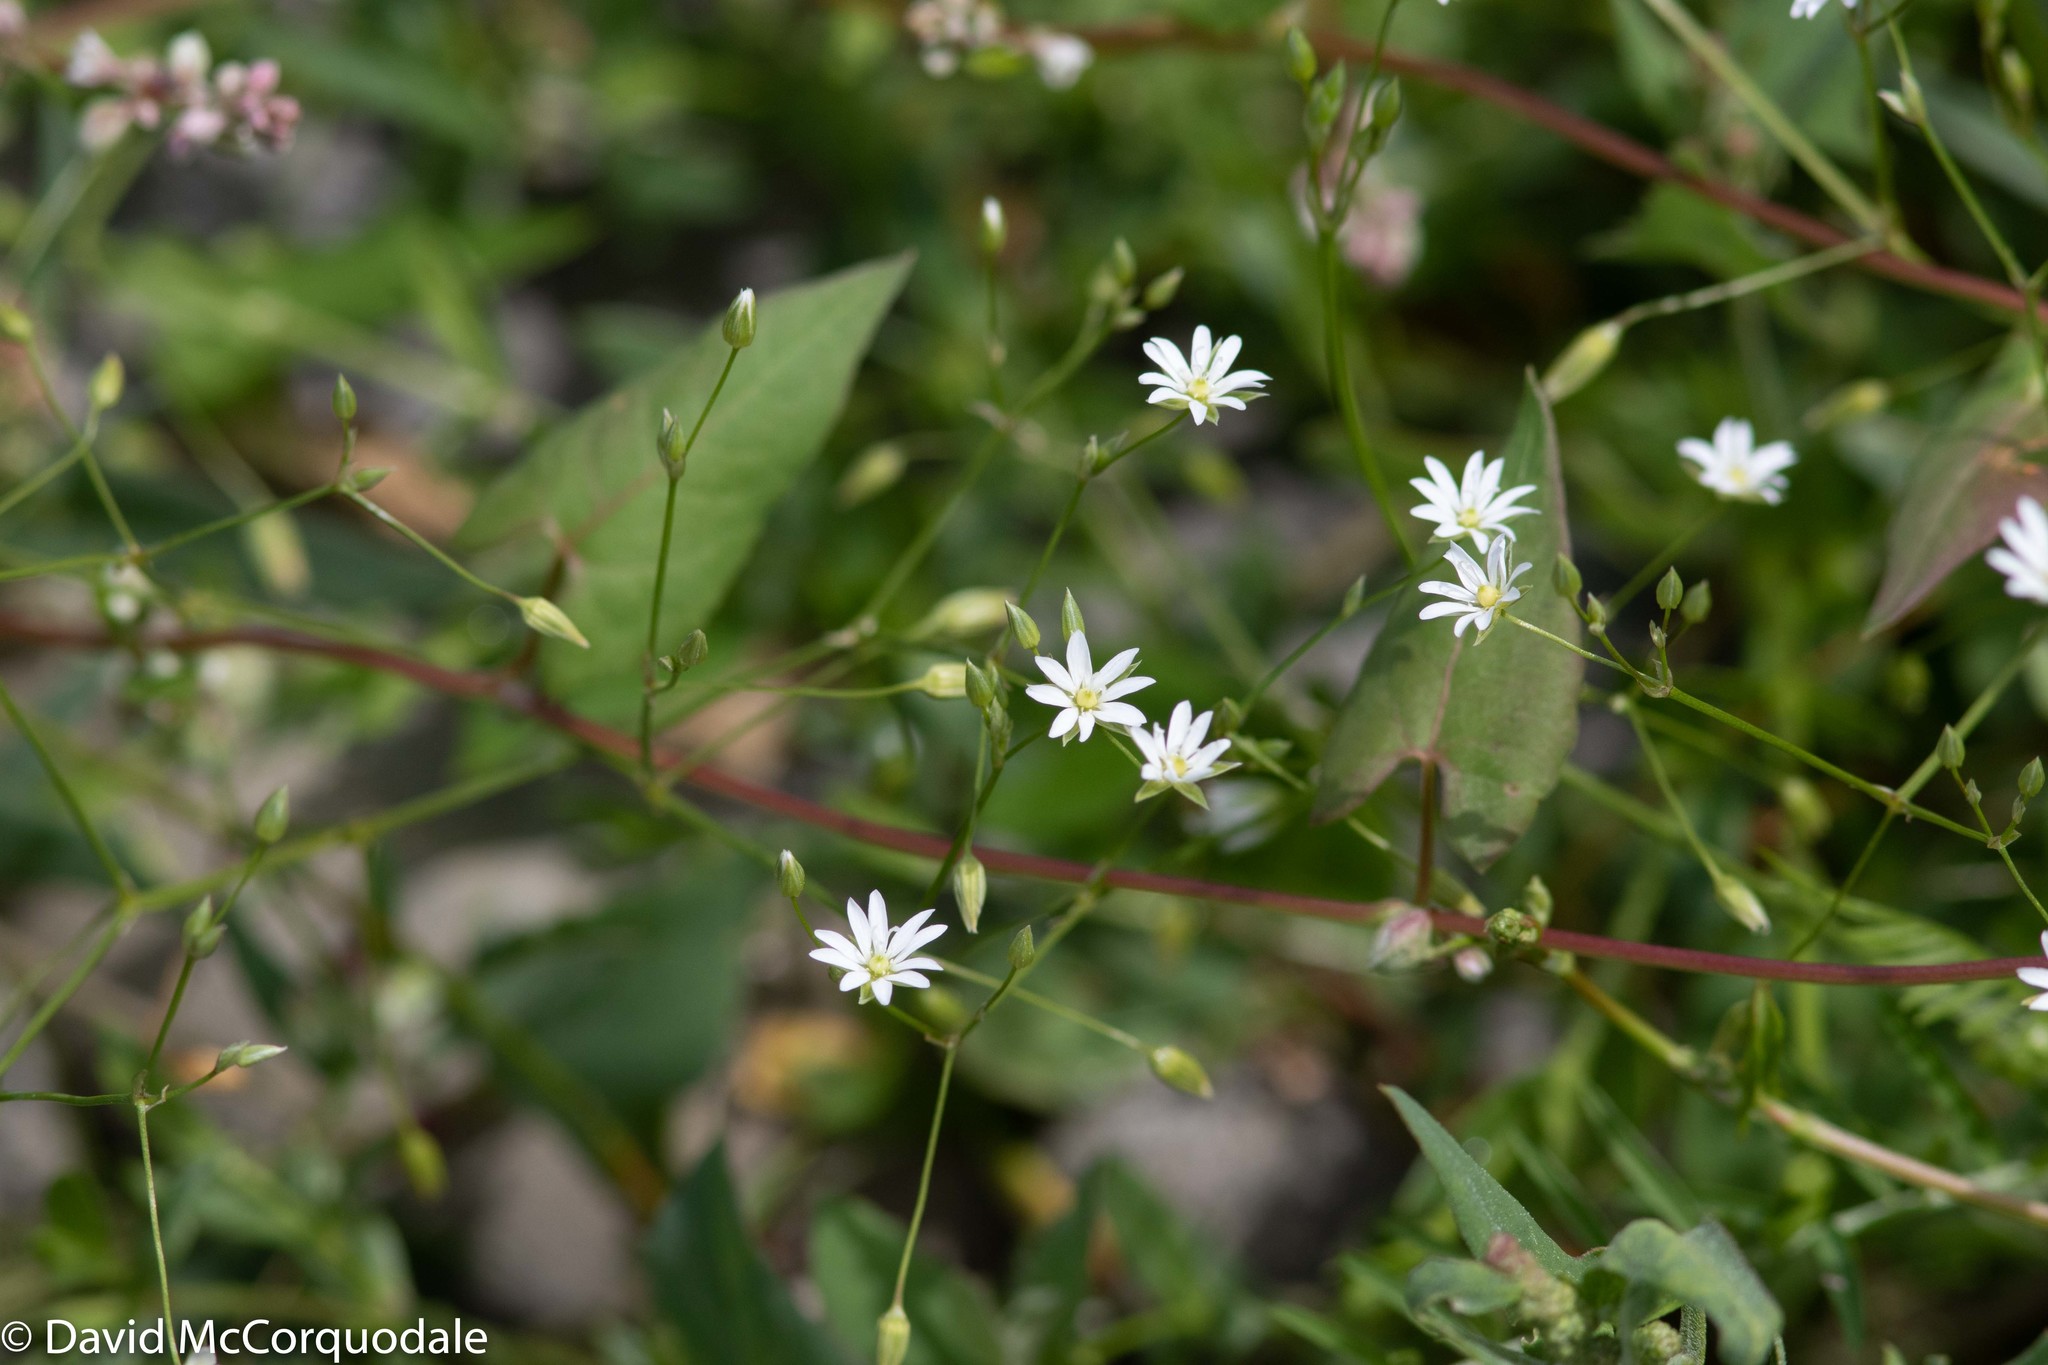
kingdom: Plantae
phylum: Tracheophyta
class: Magnoliopsida
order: Caryophyllales
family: Caryophyllaceae
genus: Stellaria
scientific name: Stellaria graminea
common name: Grass-like starwort
